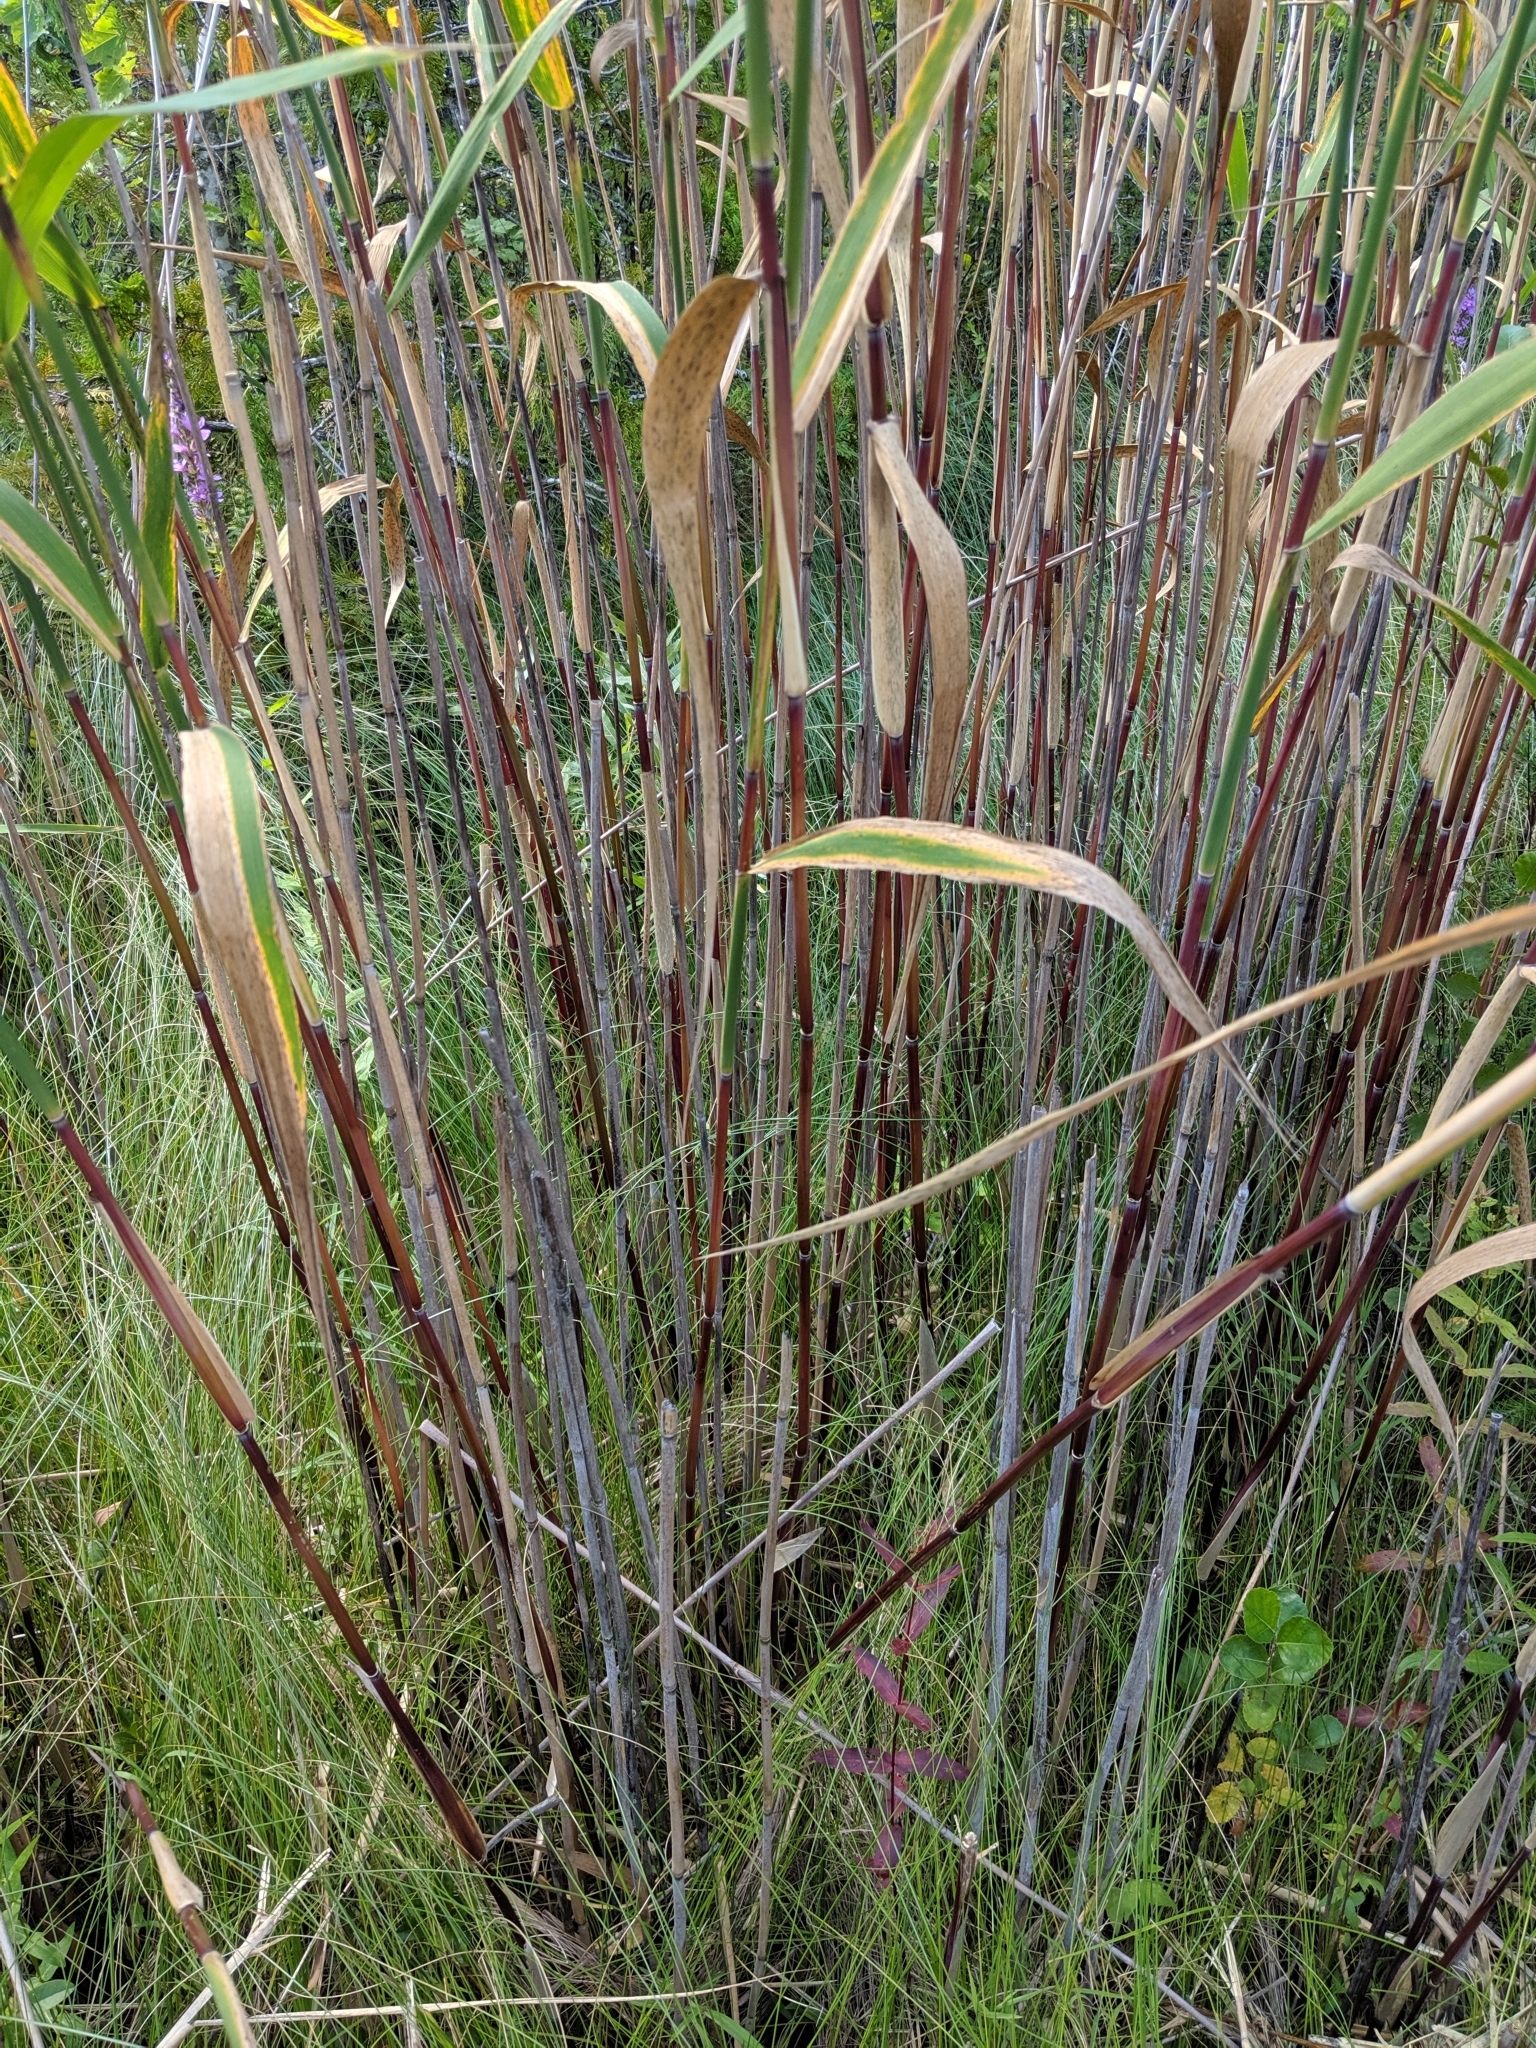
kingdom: Plantae
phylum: Tracheophyta
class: Liliopsida
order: Poales
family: Poaceae
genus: Phragmites
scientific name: Phragmites australis
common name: Common reed
